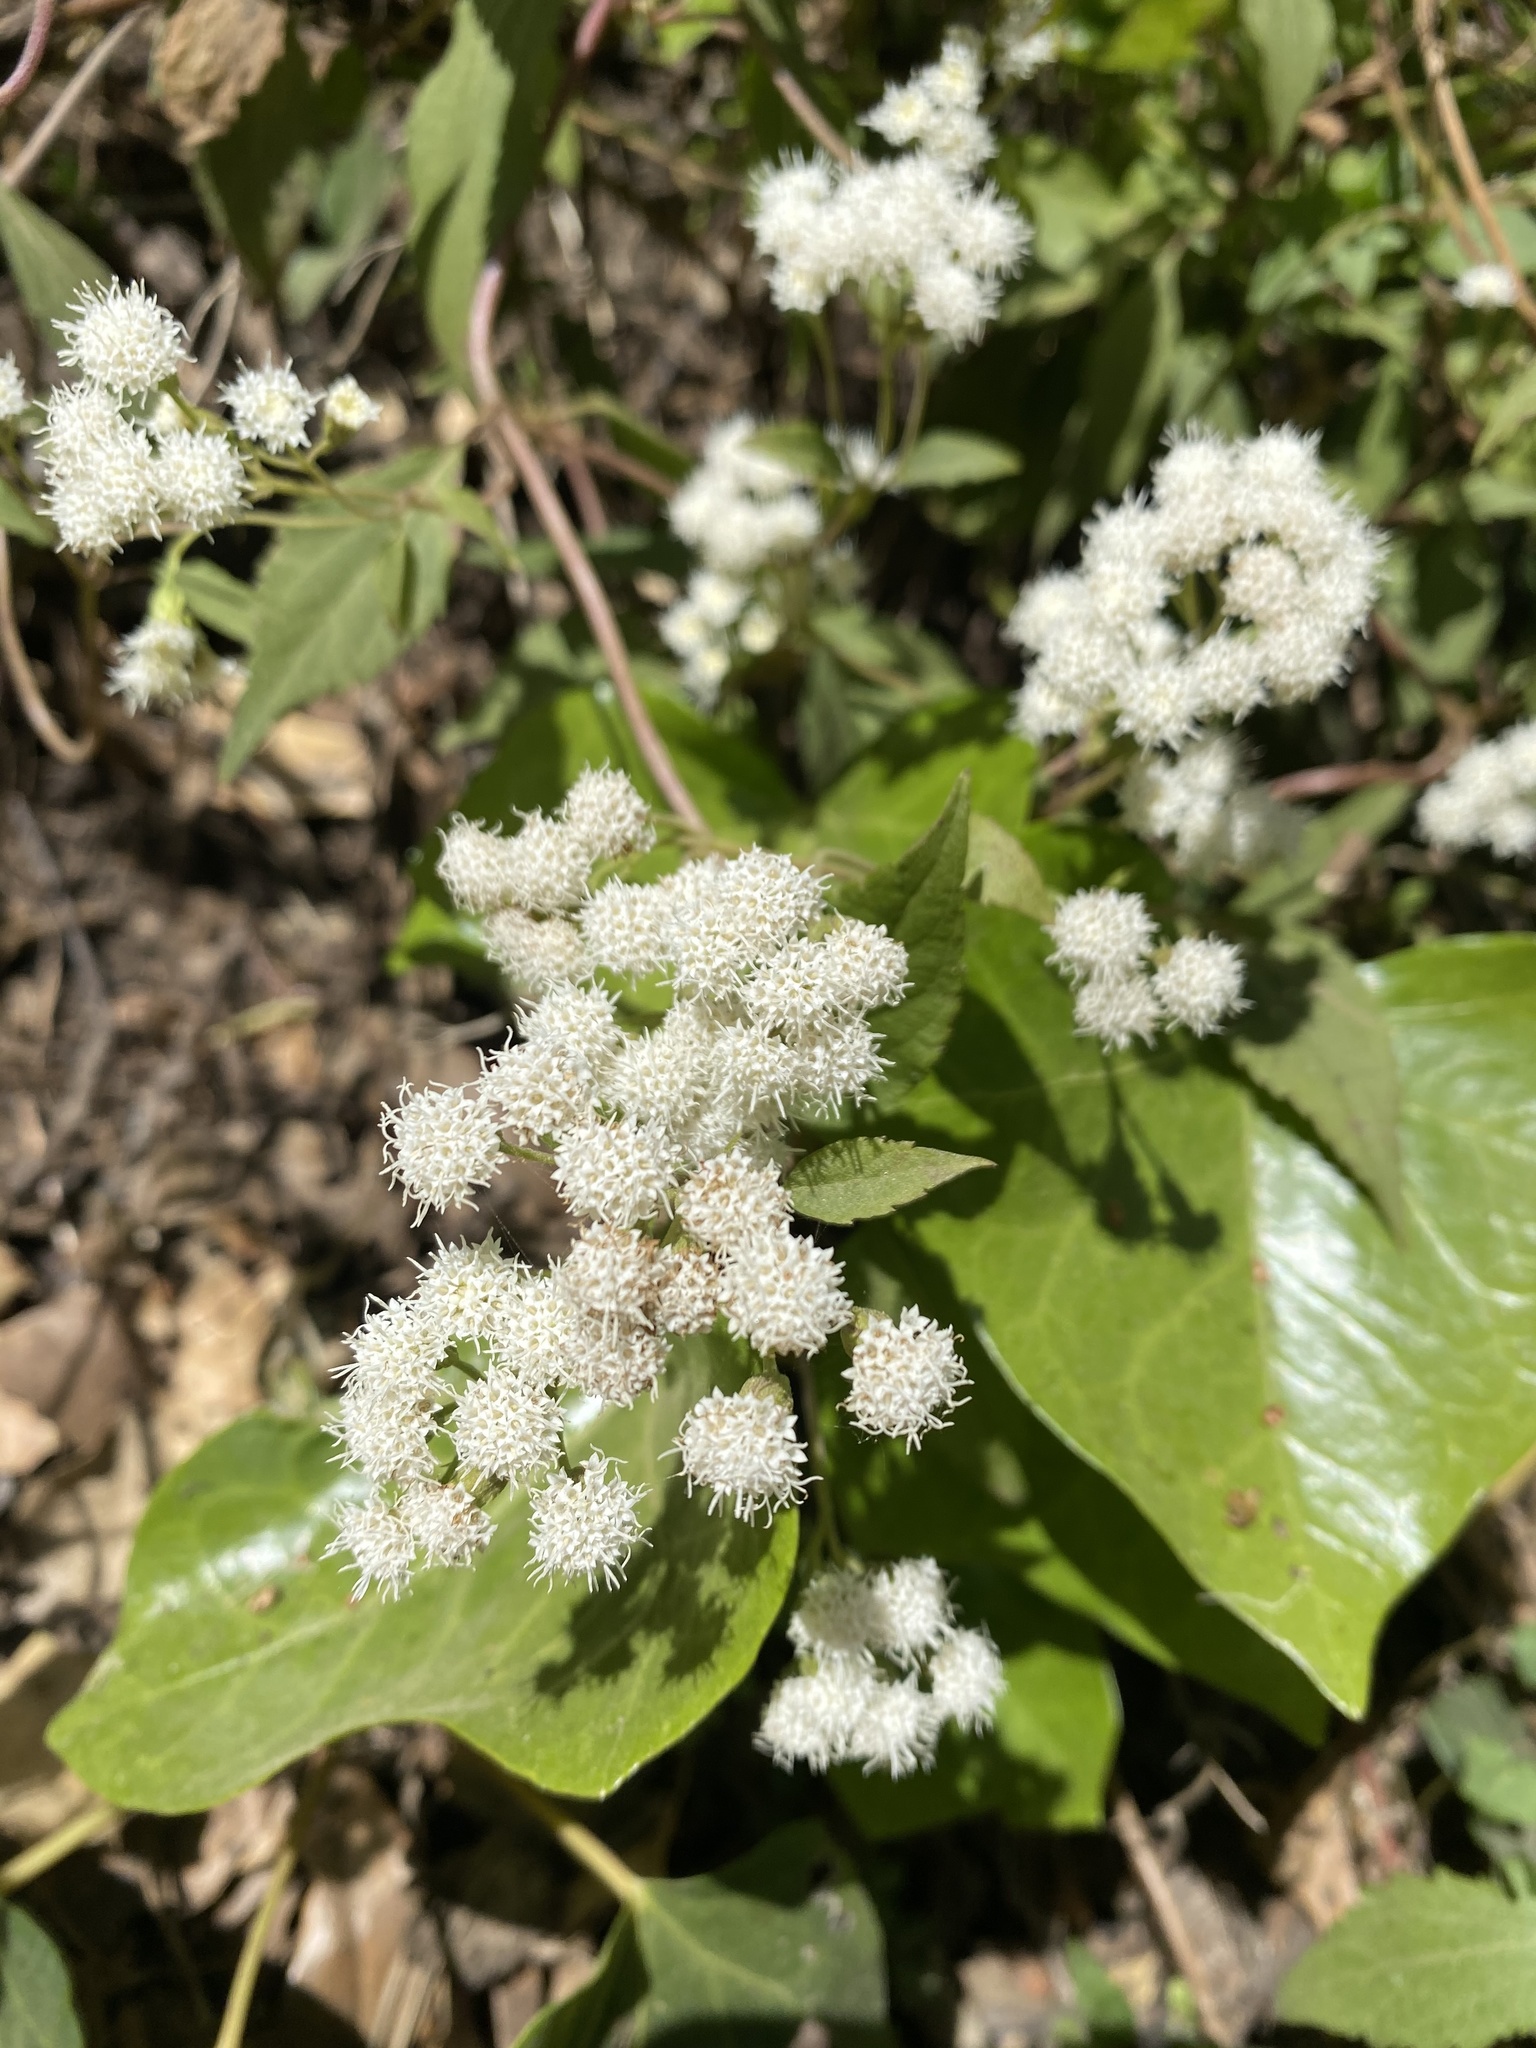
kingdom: Plantae
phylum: Tracheophyta
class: Magnoliopsida
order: Asterales
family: Asteraceae
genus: Ageratina
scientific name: Ageratina adenophora
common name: Sticky snakeroot
